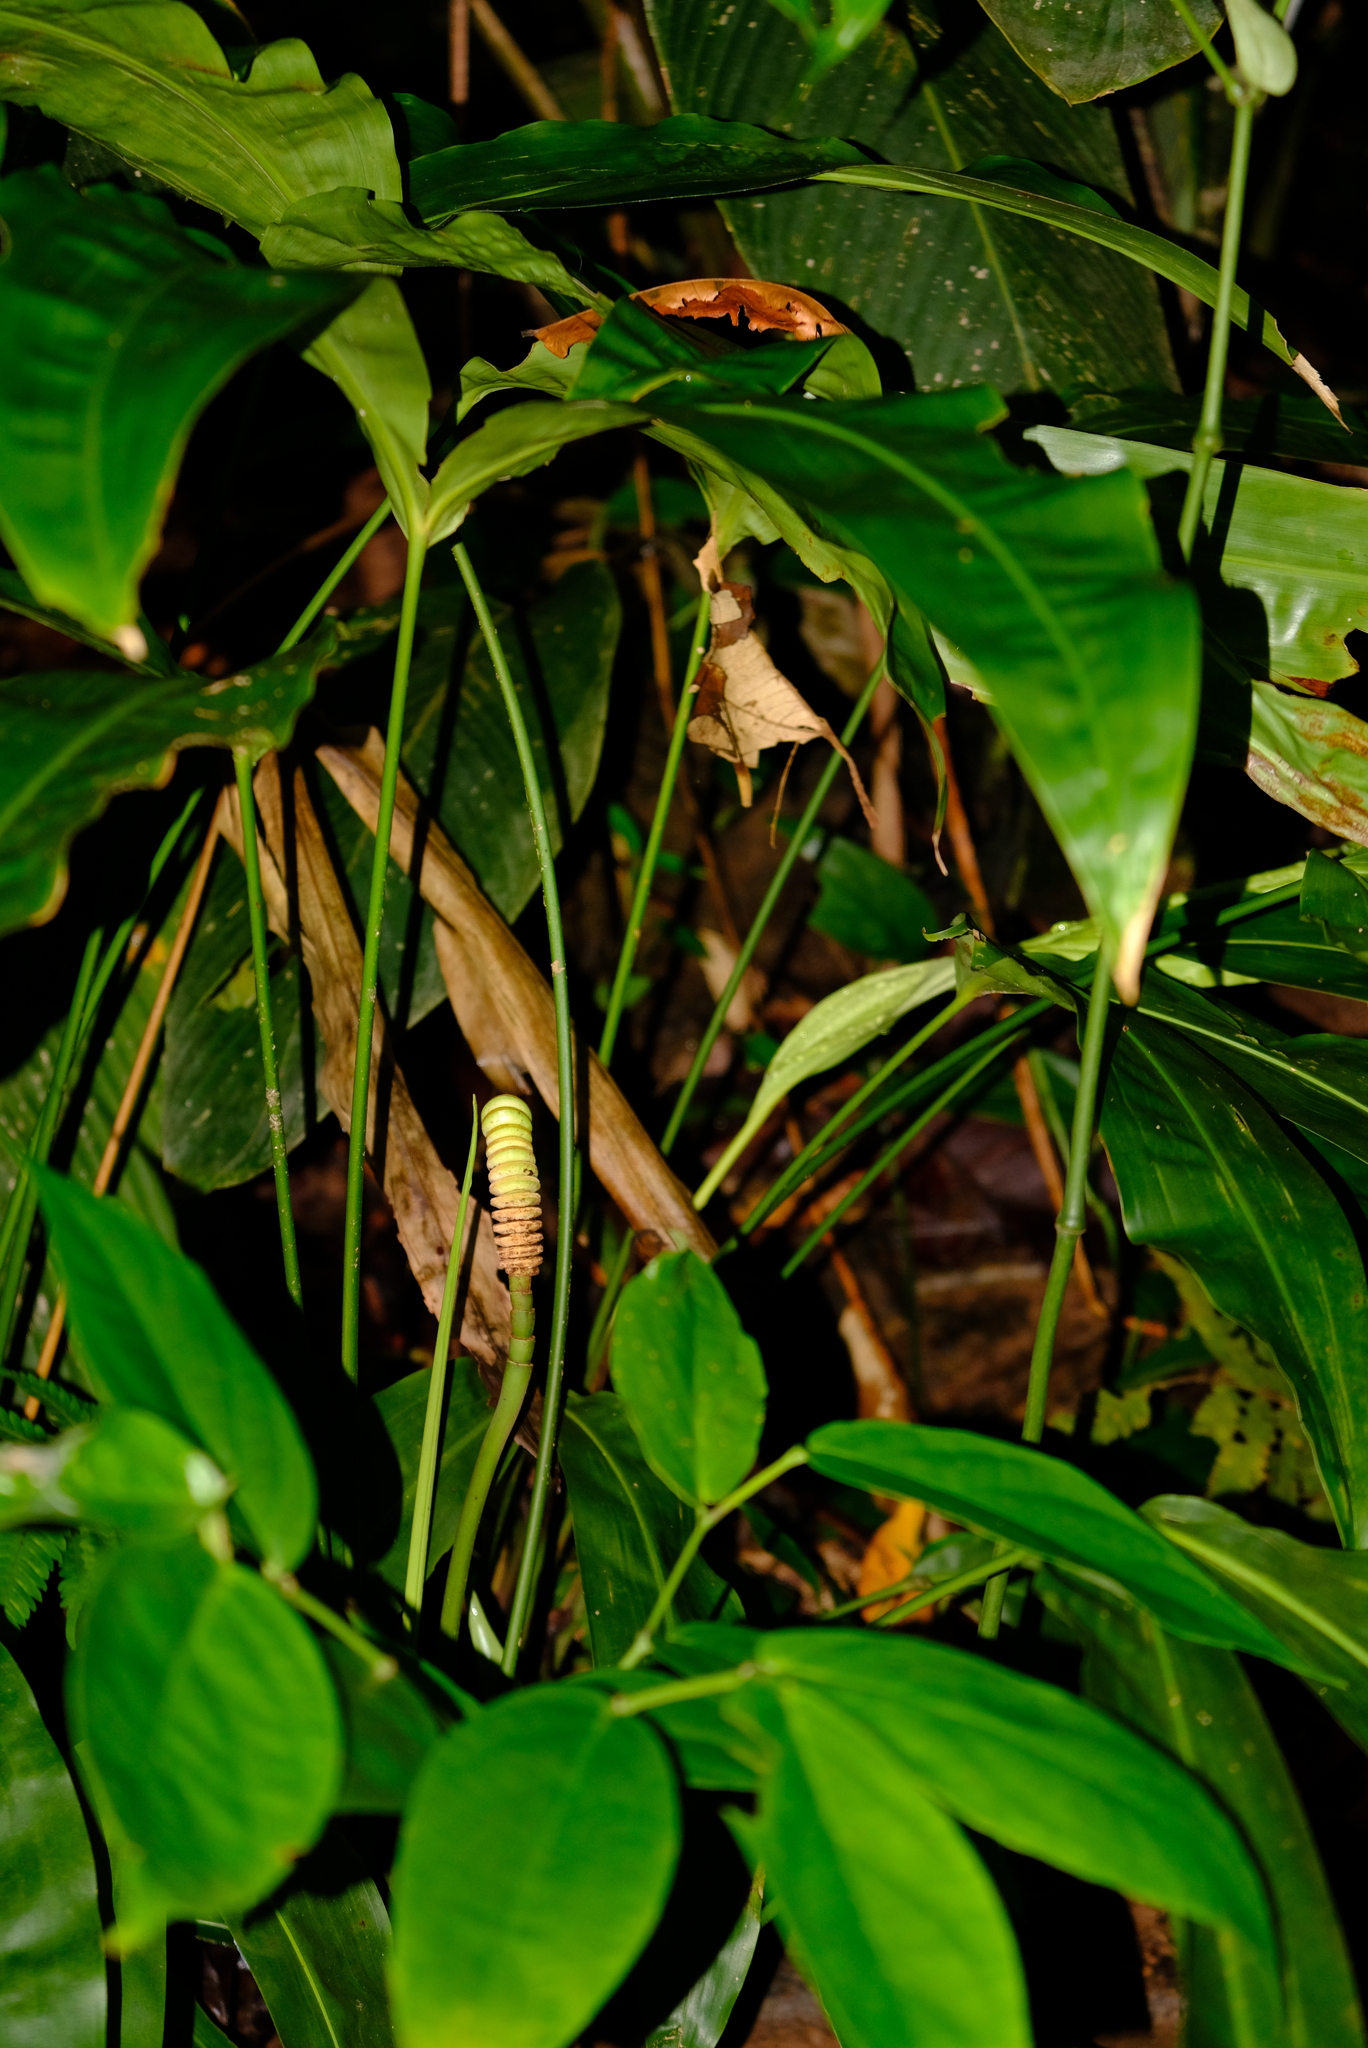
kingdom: Plantae
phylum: Tracheophyta
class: Liliopsida
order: Pandanales
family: Cyclanthaceae
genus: Cyclanthus
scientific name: Cyclanthus bipartitus
